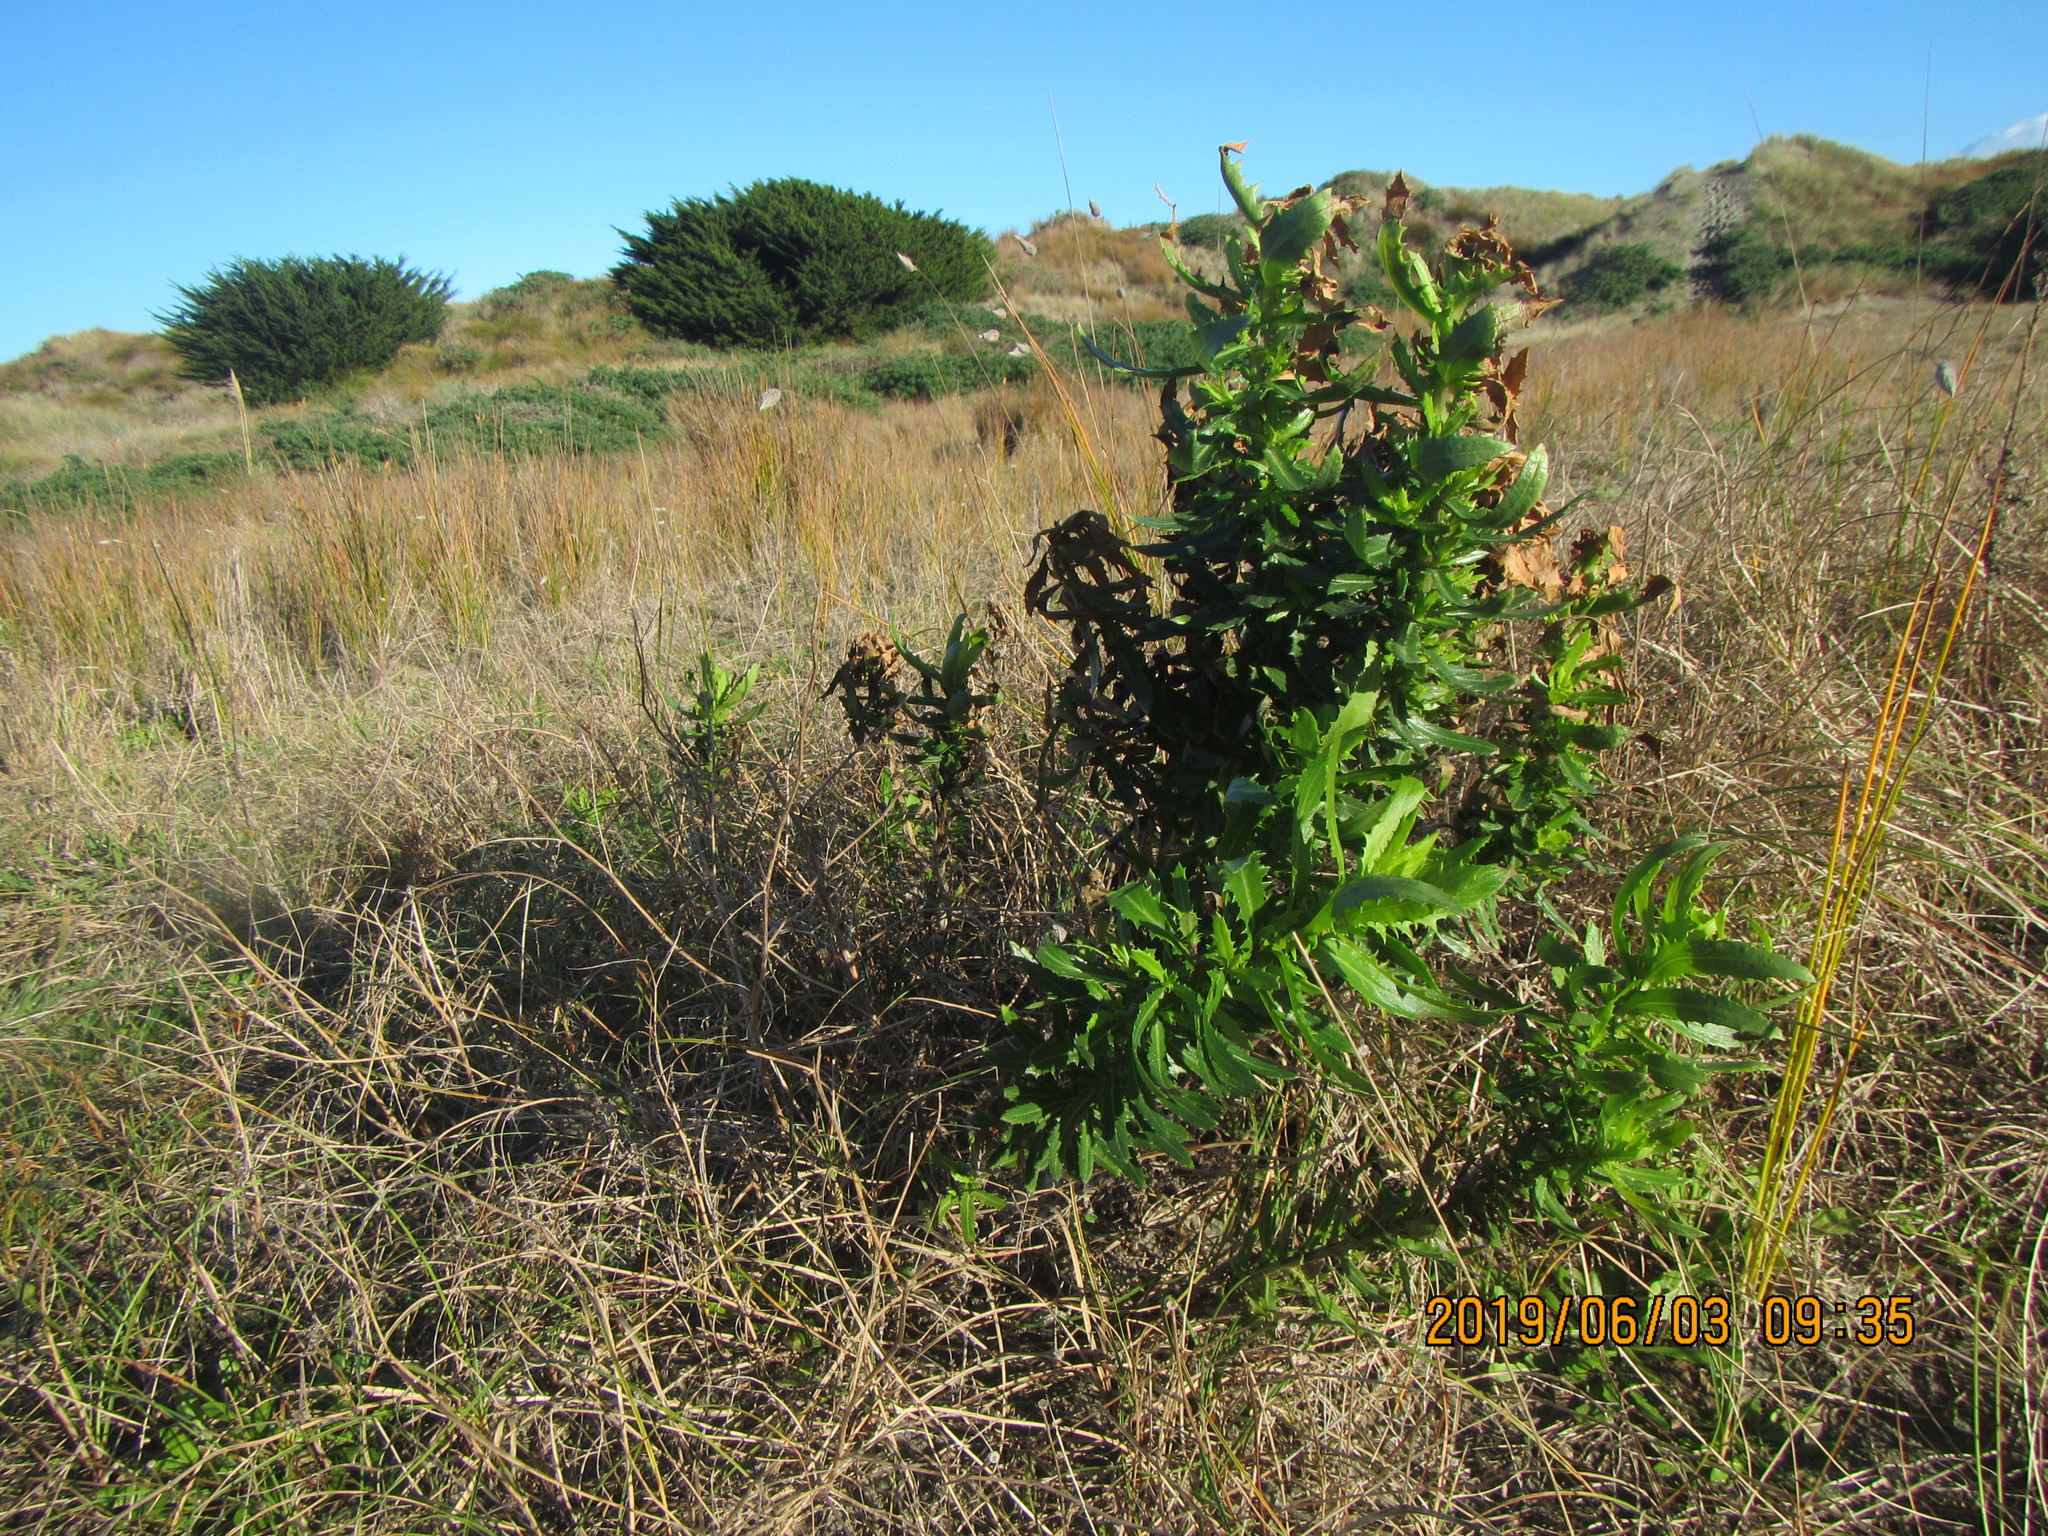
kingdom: Plantae
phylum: Tracheophyta
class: Magnoliopsida
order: Asterales
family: Asteraceae
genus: Senecio
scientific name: Senecio glastifolius
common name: Woad-leaved ragwort
